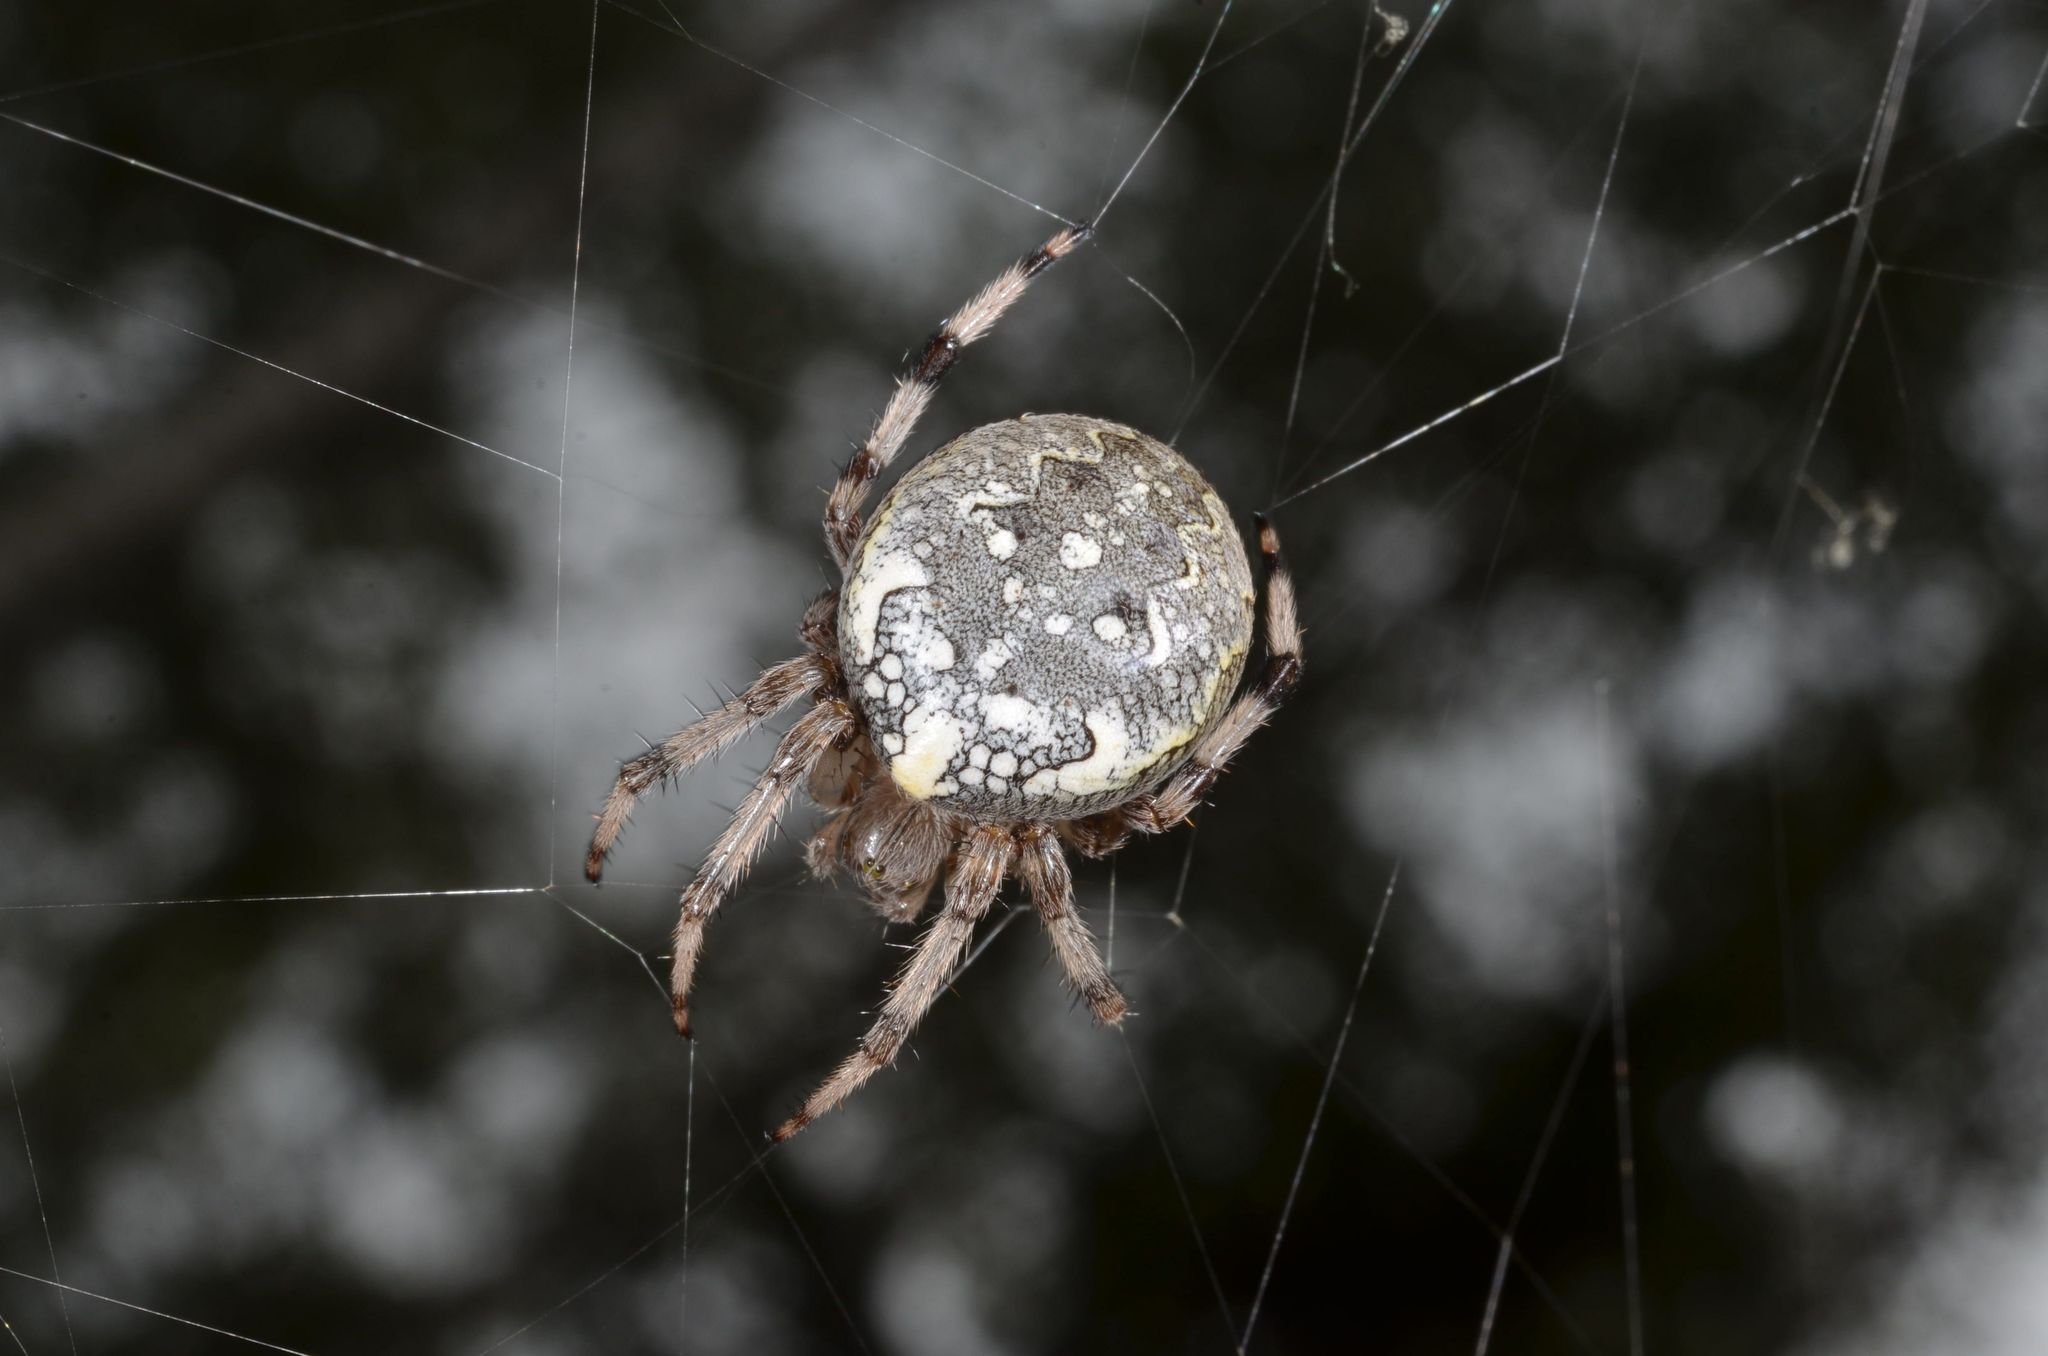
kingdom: Animalia
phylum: Arthropoda
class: Arachnida
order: Araneae
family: Araneidae
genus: Araneus
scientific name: Araneus marmoreus
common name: Marbled orbweaver
